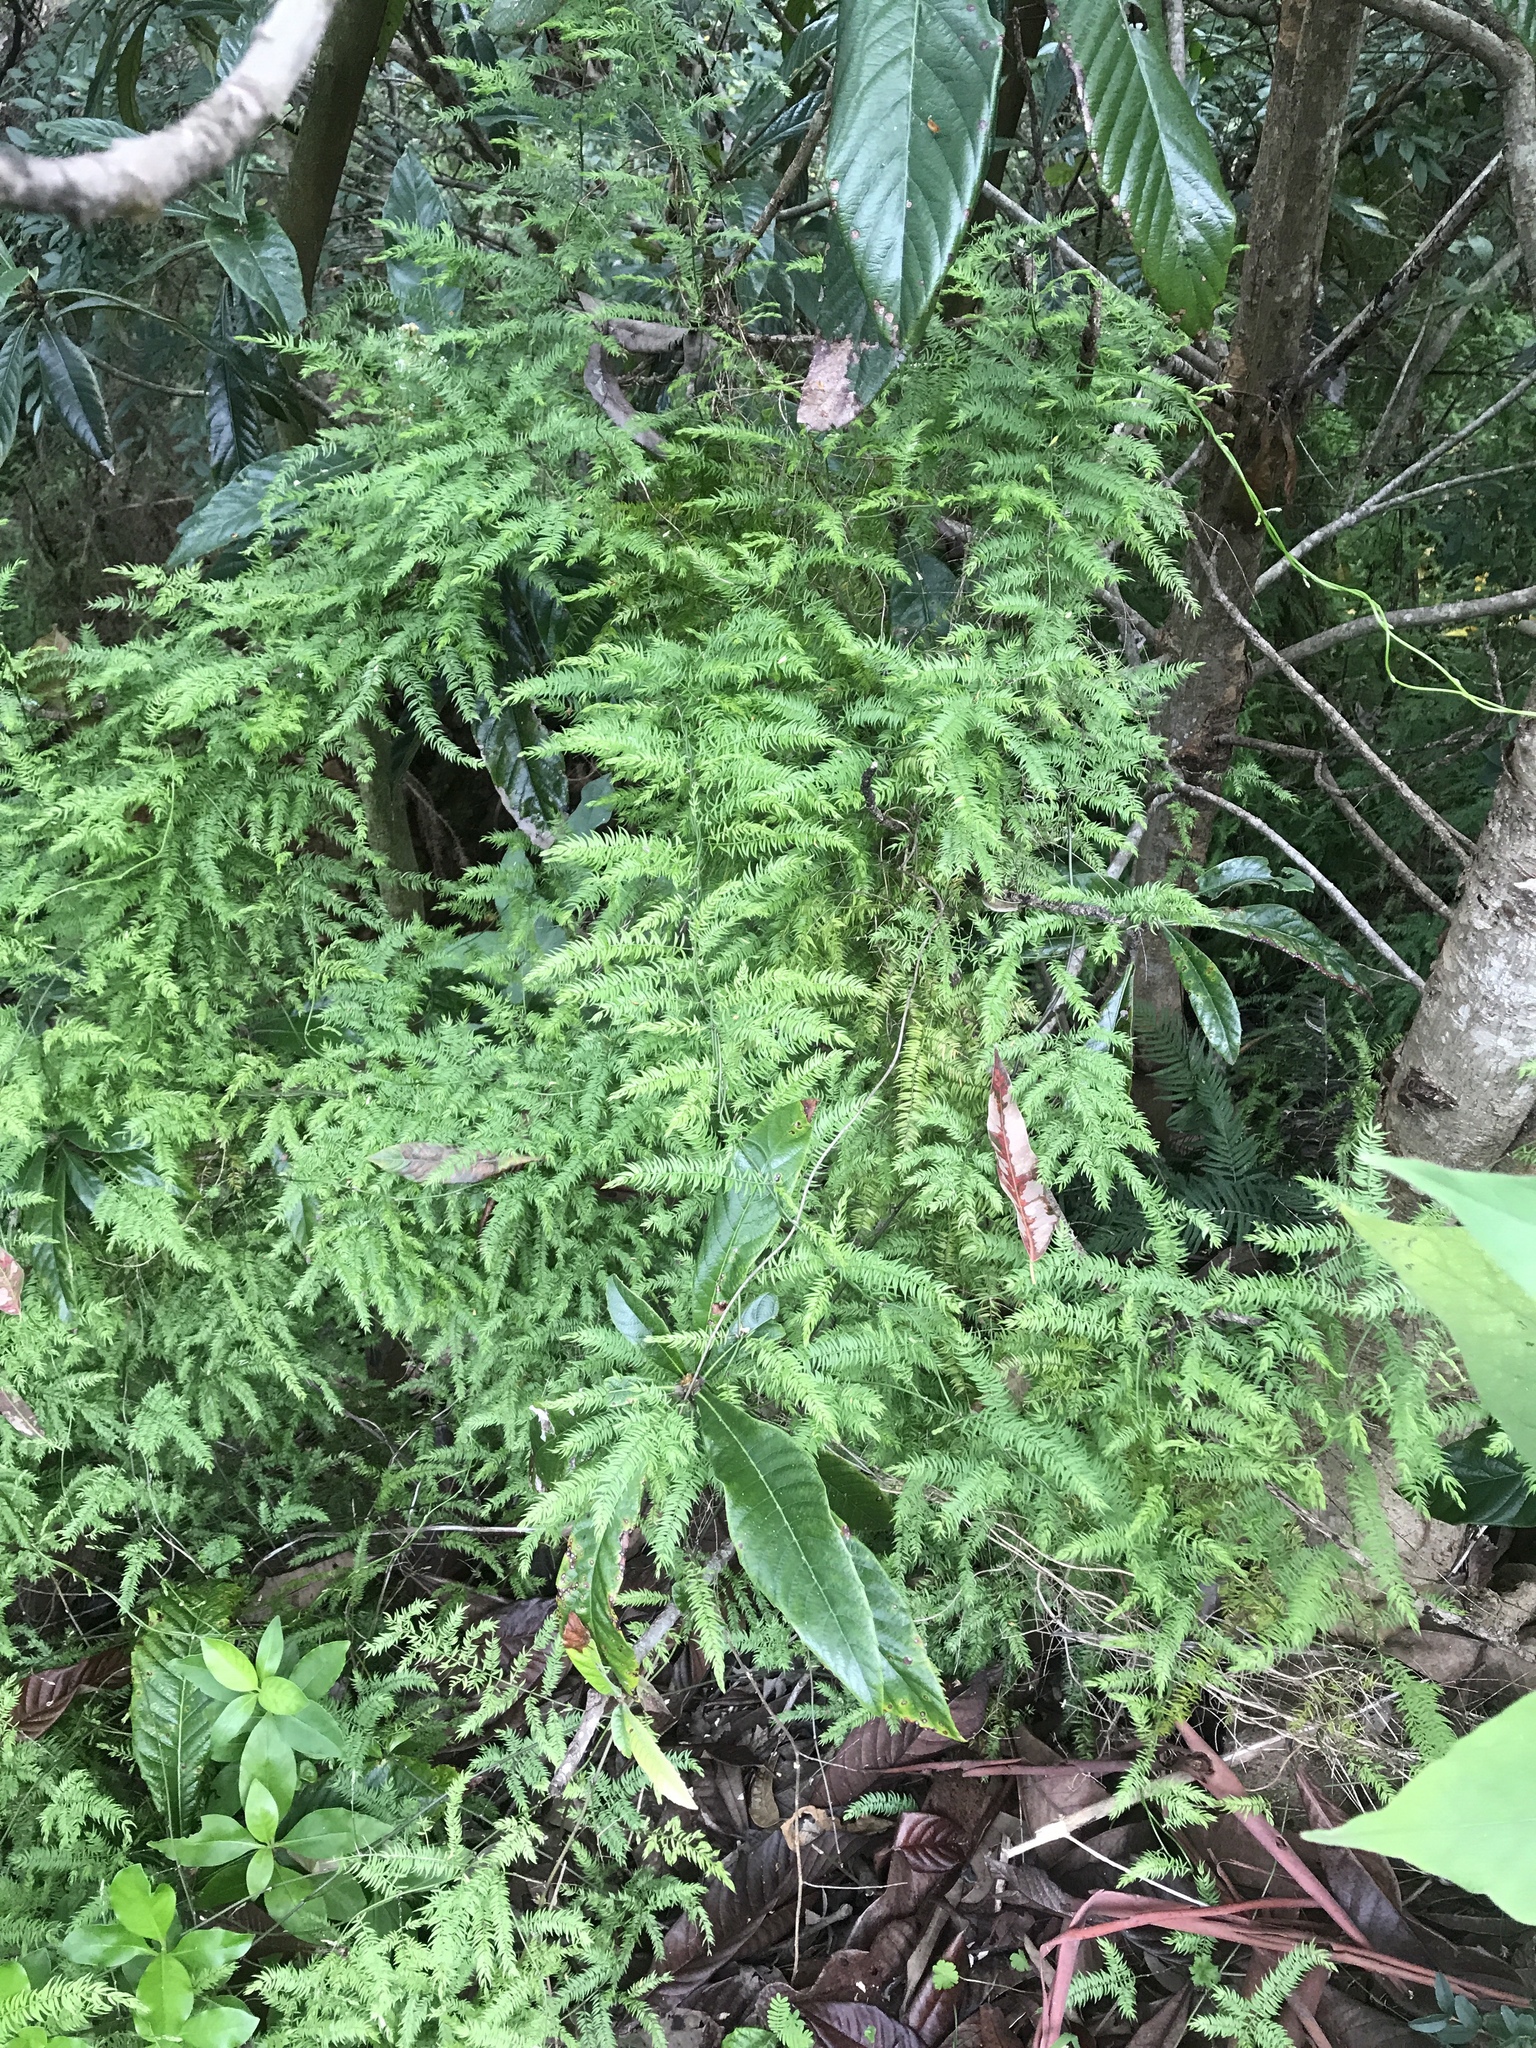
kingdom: Plantae
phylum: Tracheophyta
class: Liliopsida
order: Asparagales
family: Asparagaceae
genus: Asparagus
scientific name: Asparagus scandens
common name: Asparagus-fern
